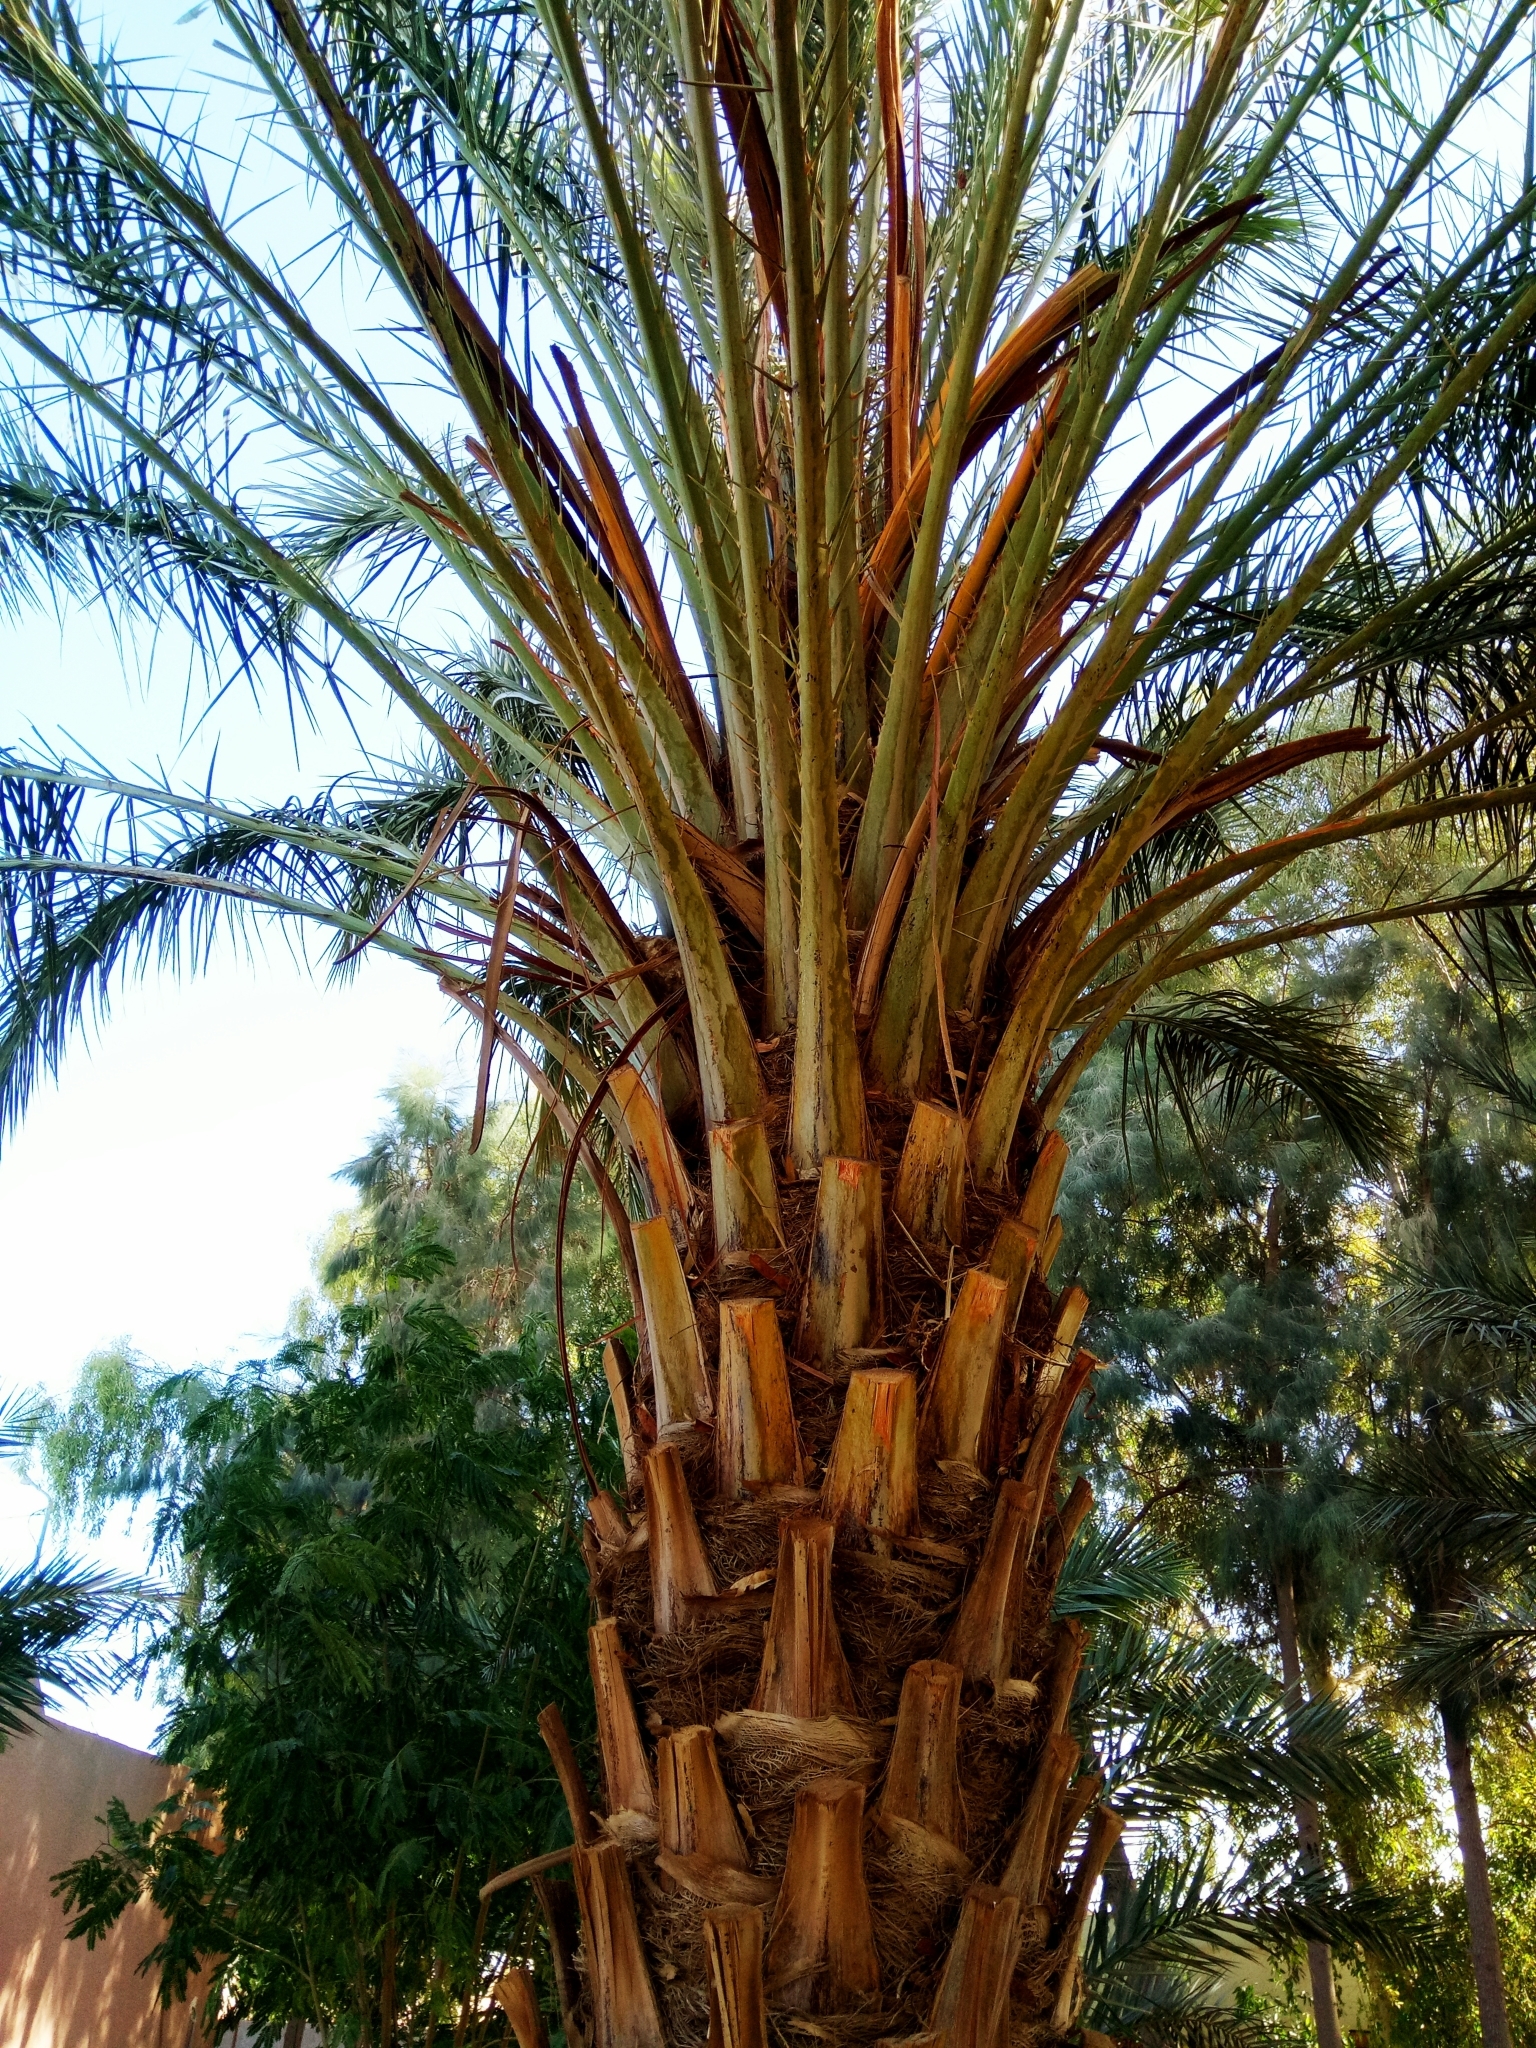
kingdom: Plantae
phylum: Tracheophyta
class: Liliopsida
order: Arecales
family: Arecaceae
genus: Phoenix
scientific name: Phoenix dactylifera
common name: Date palm
